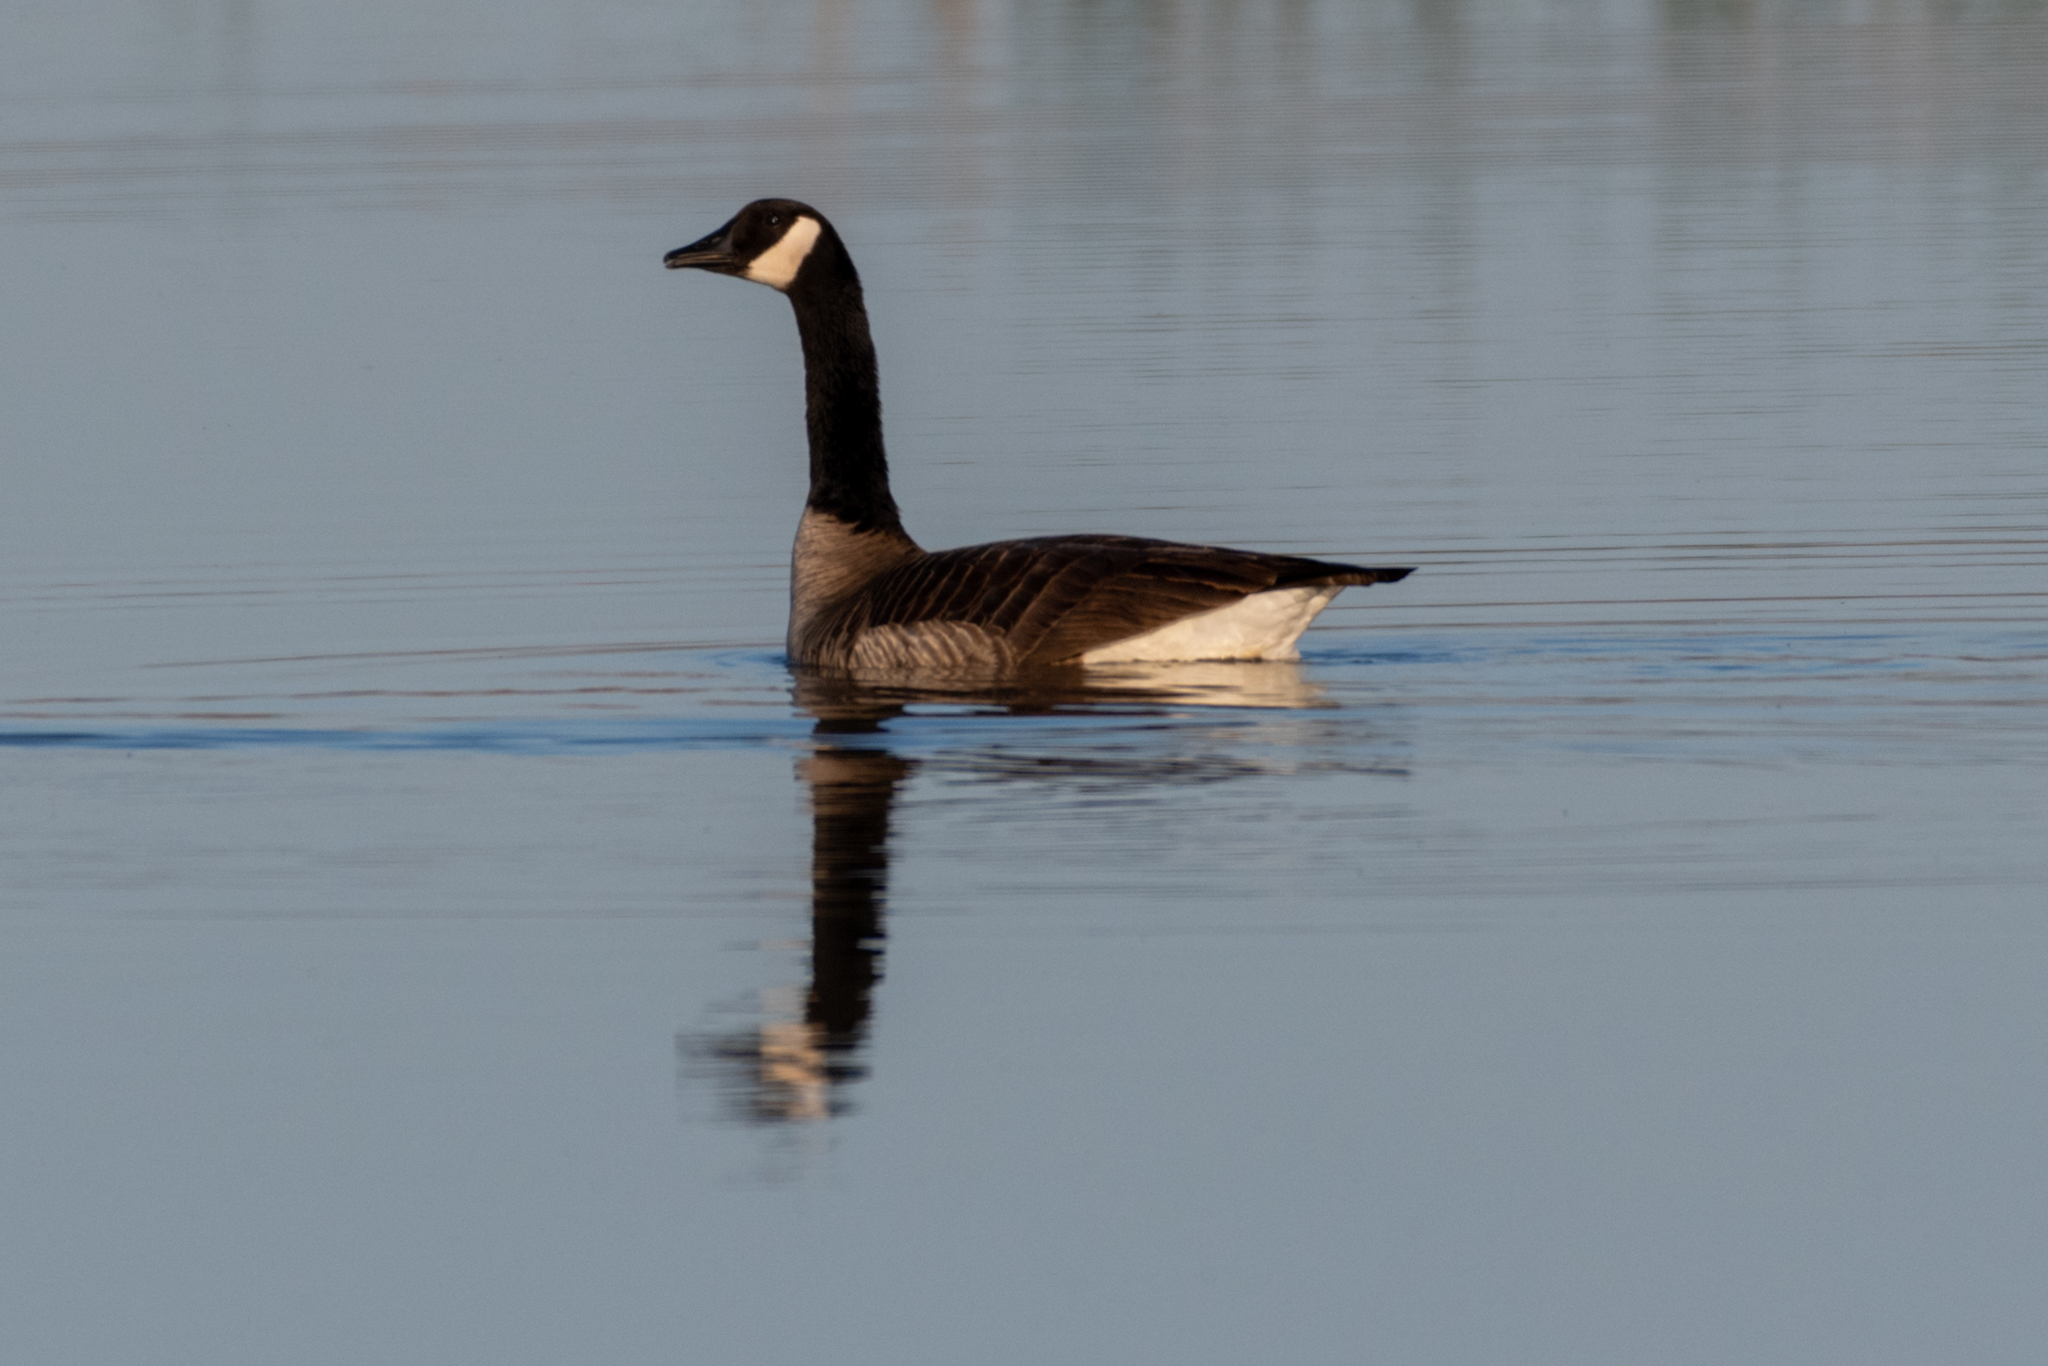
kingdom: Animalia
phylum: Chordata
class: Aves
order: Anseriformes
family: Anatidae
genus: Branta
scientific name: Branta canadensis
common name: Canada goose
